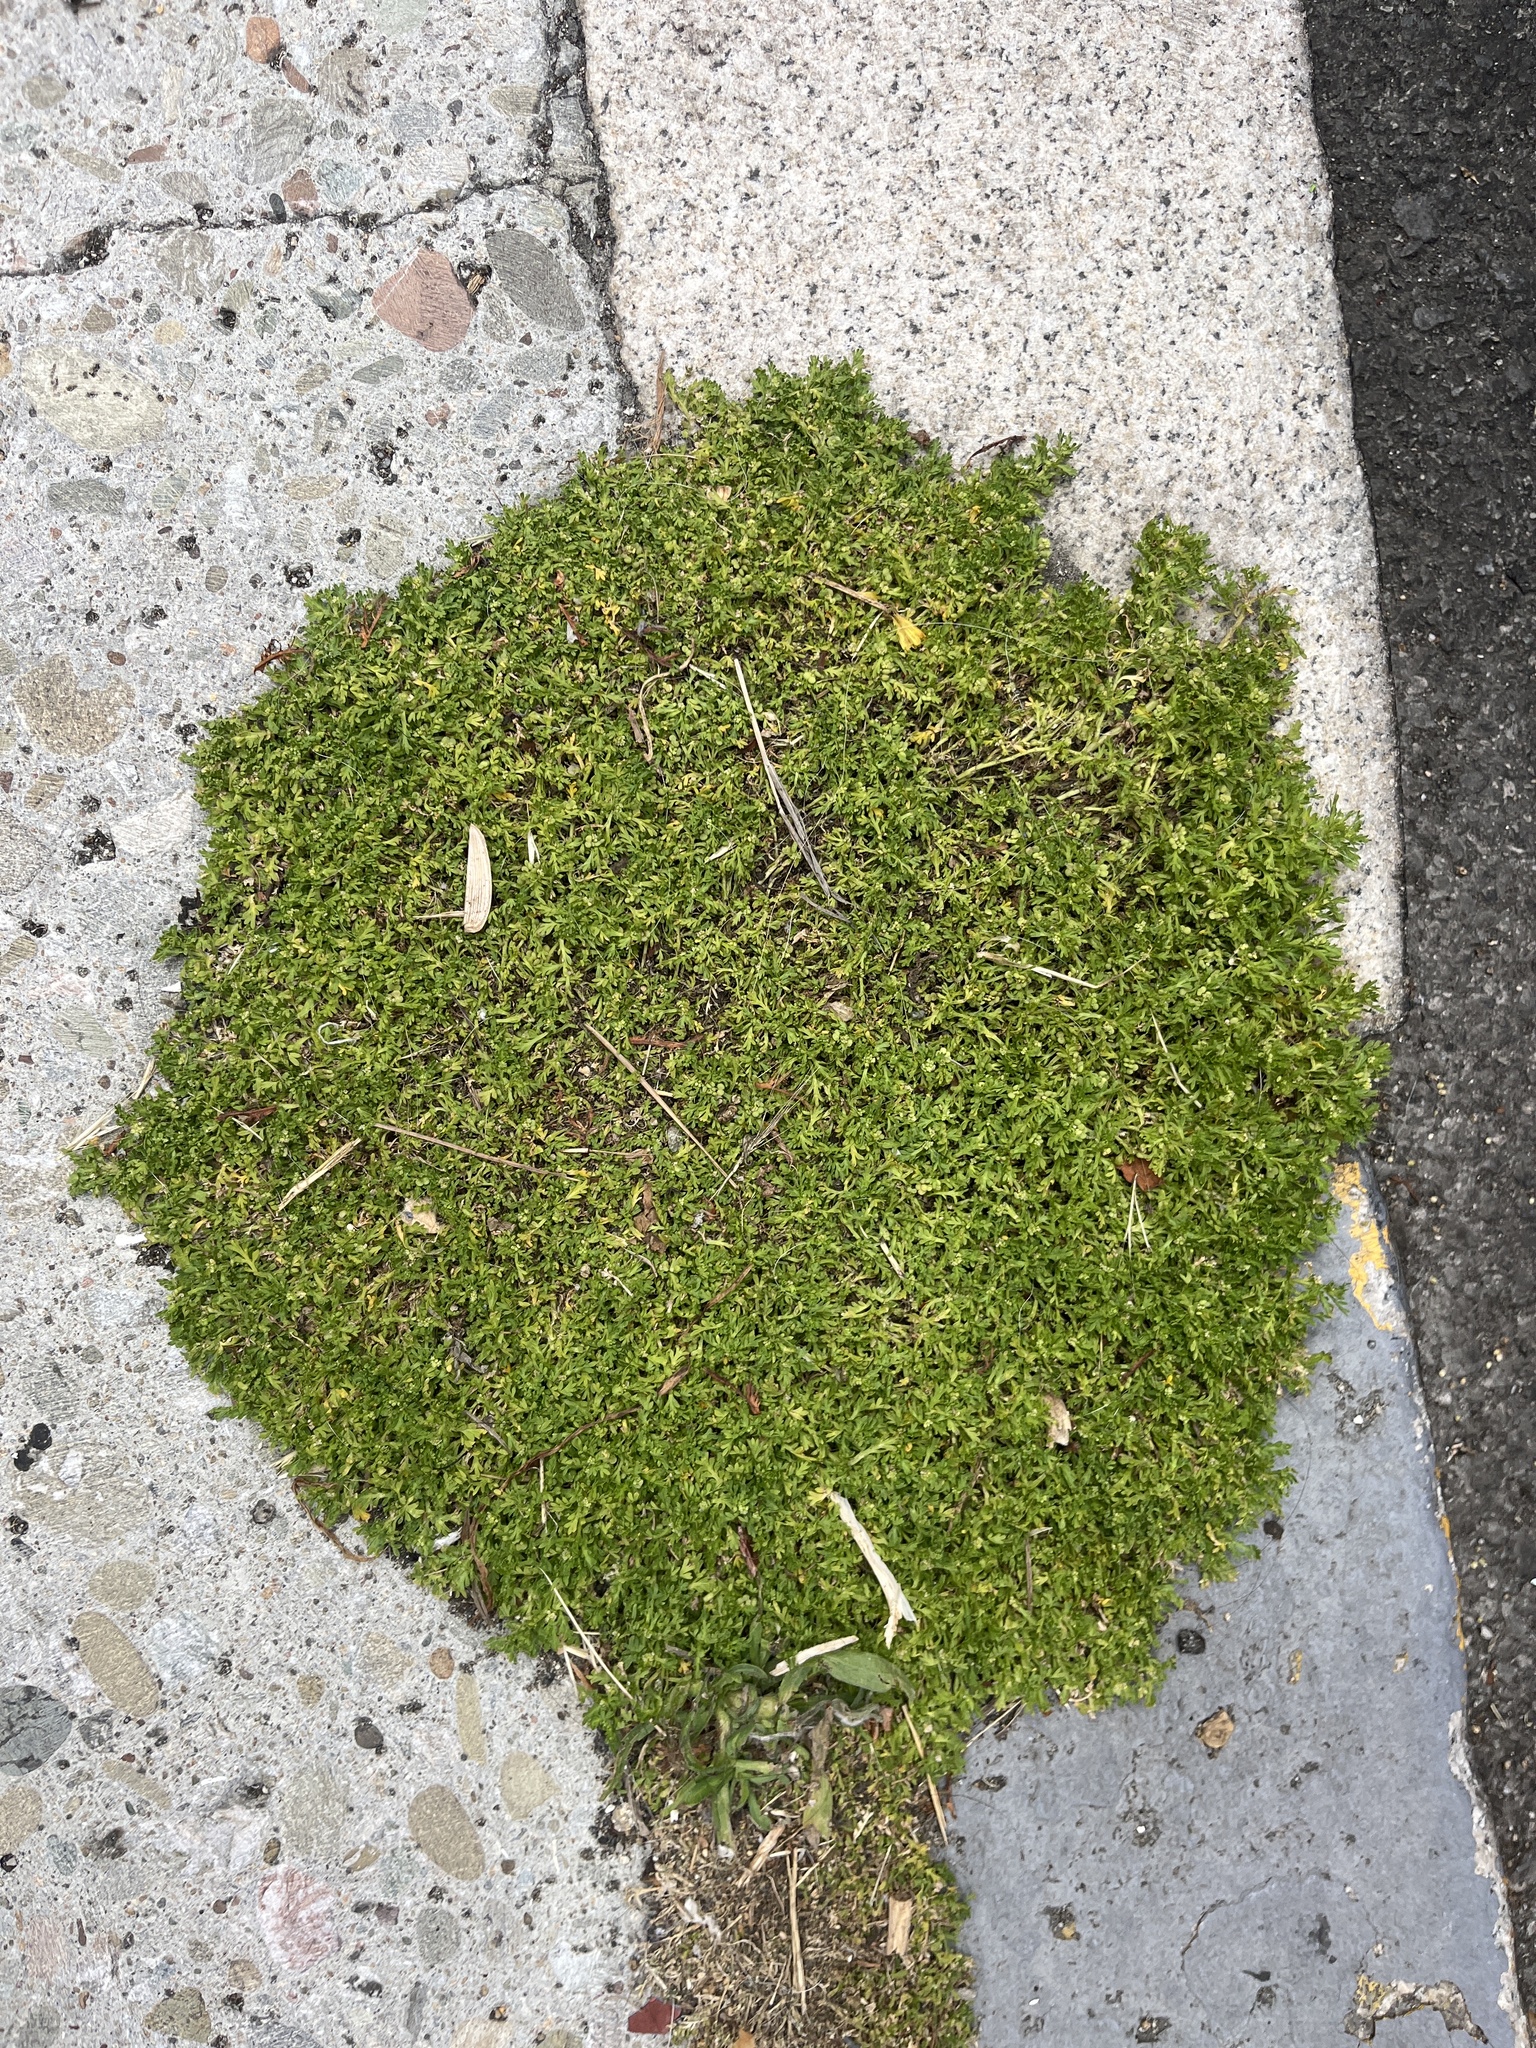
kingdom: Plantae
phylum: Tracheophyta
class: Magnoliopsida
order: Brassicales
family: Brassicaceae
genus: Lepidium
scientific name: Lepidium didymum
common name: Lesser swinecress
